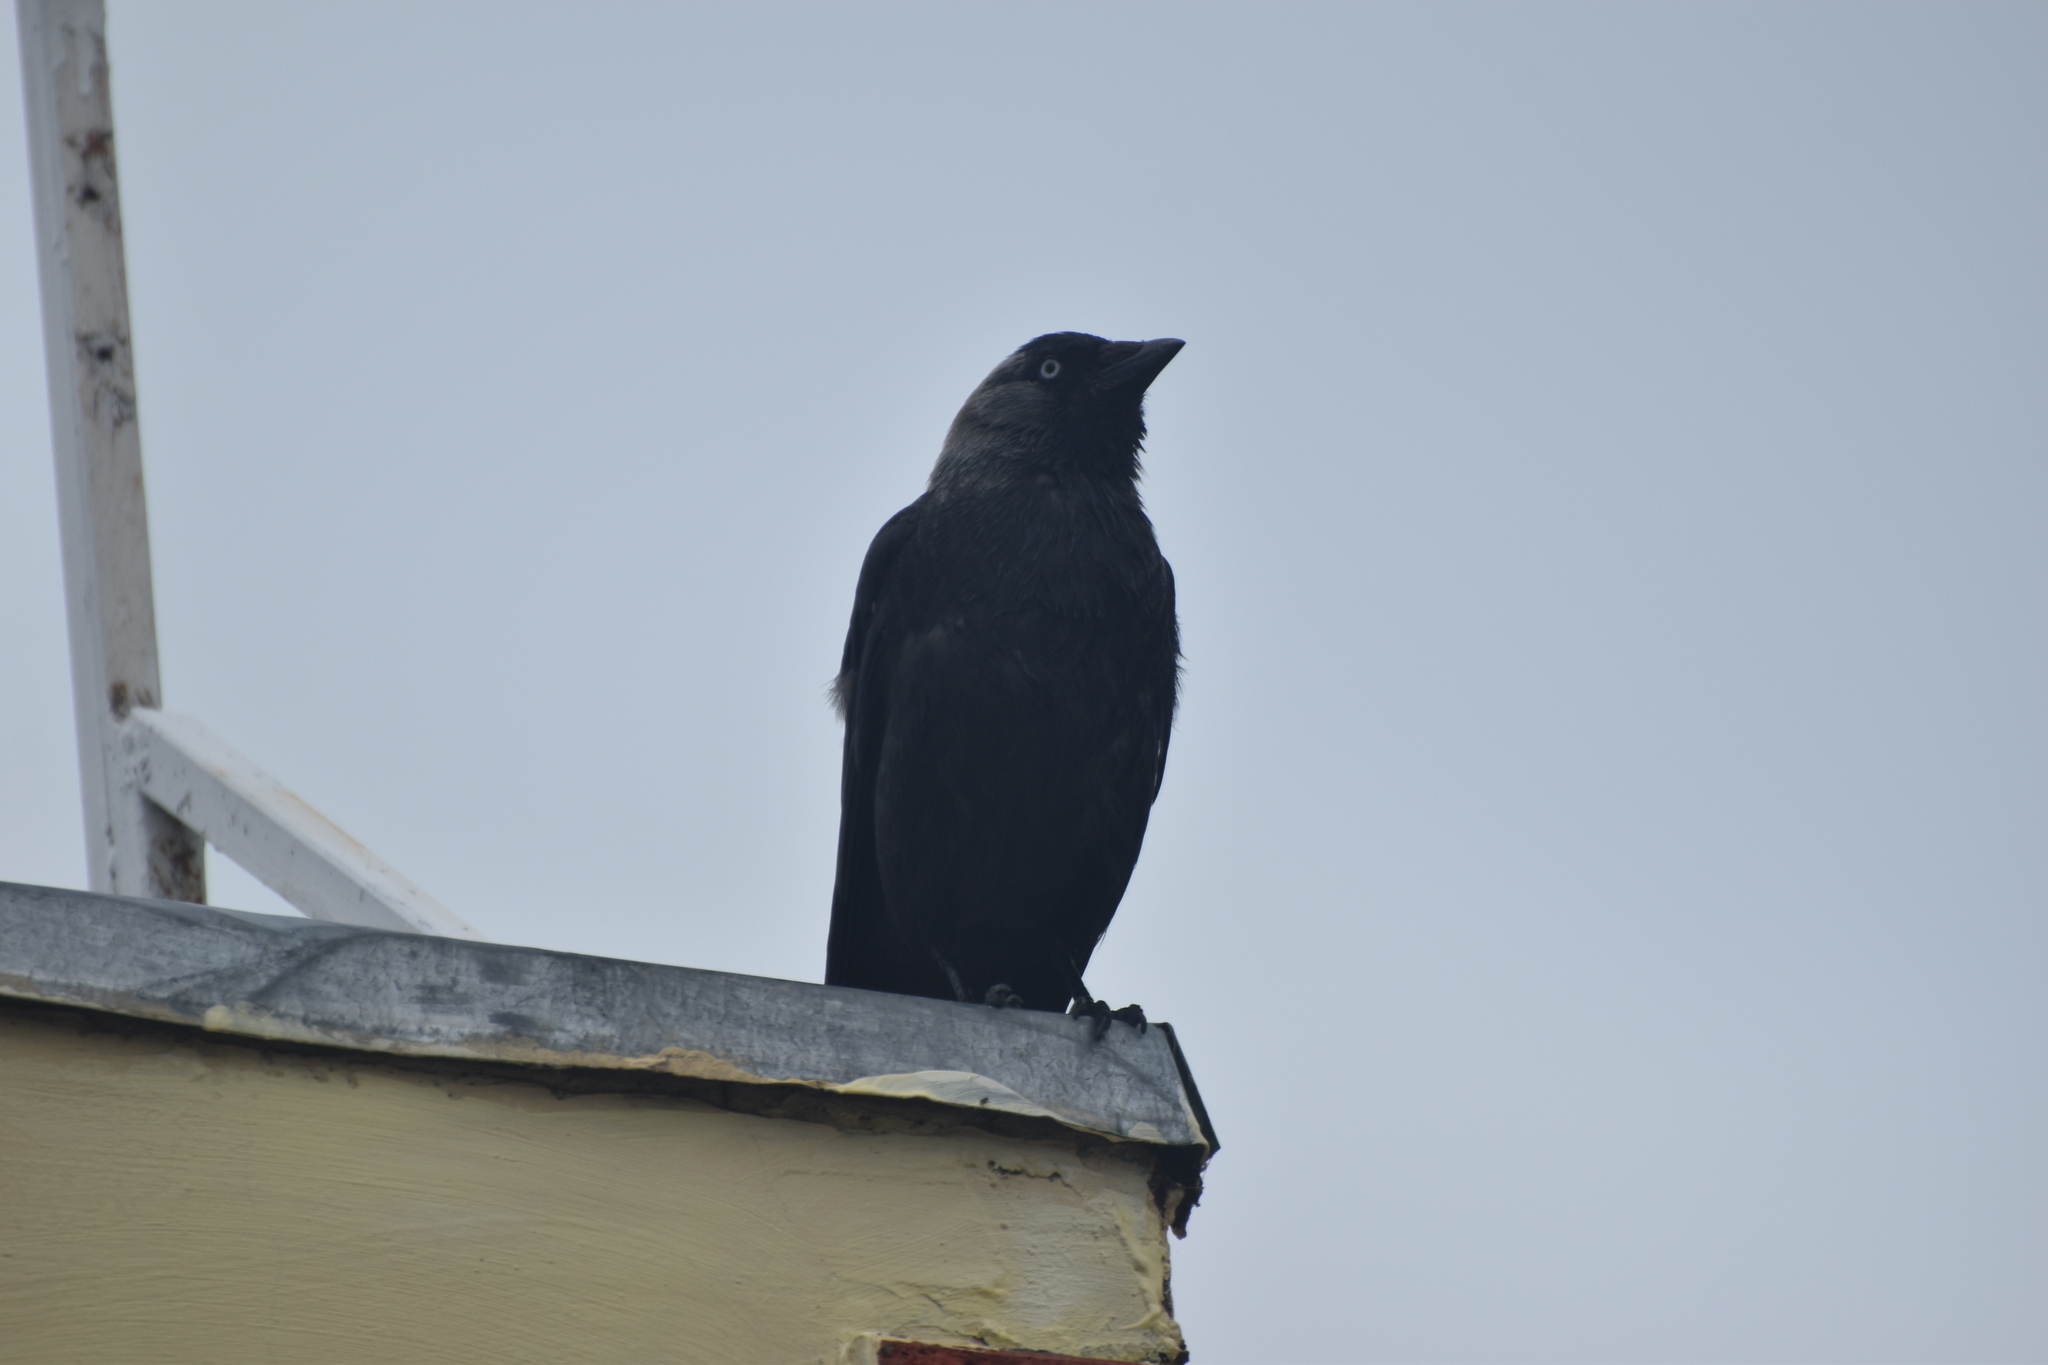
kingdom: Animalia
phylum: Chordata
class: Aves
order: Passeriformes
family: Corvidae
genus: Coloeus
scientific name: Coloeus monedula
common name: Western jackdaw
